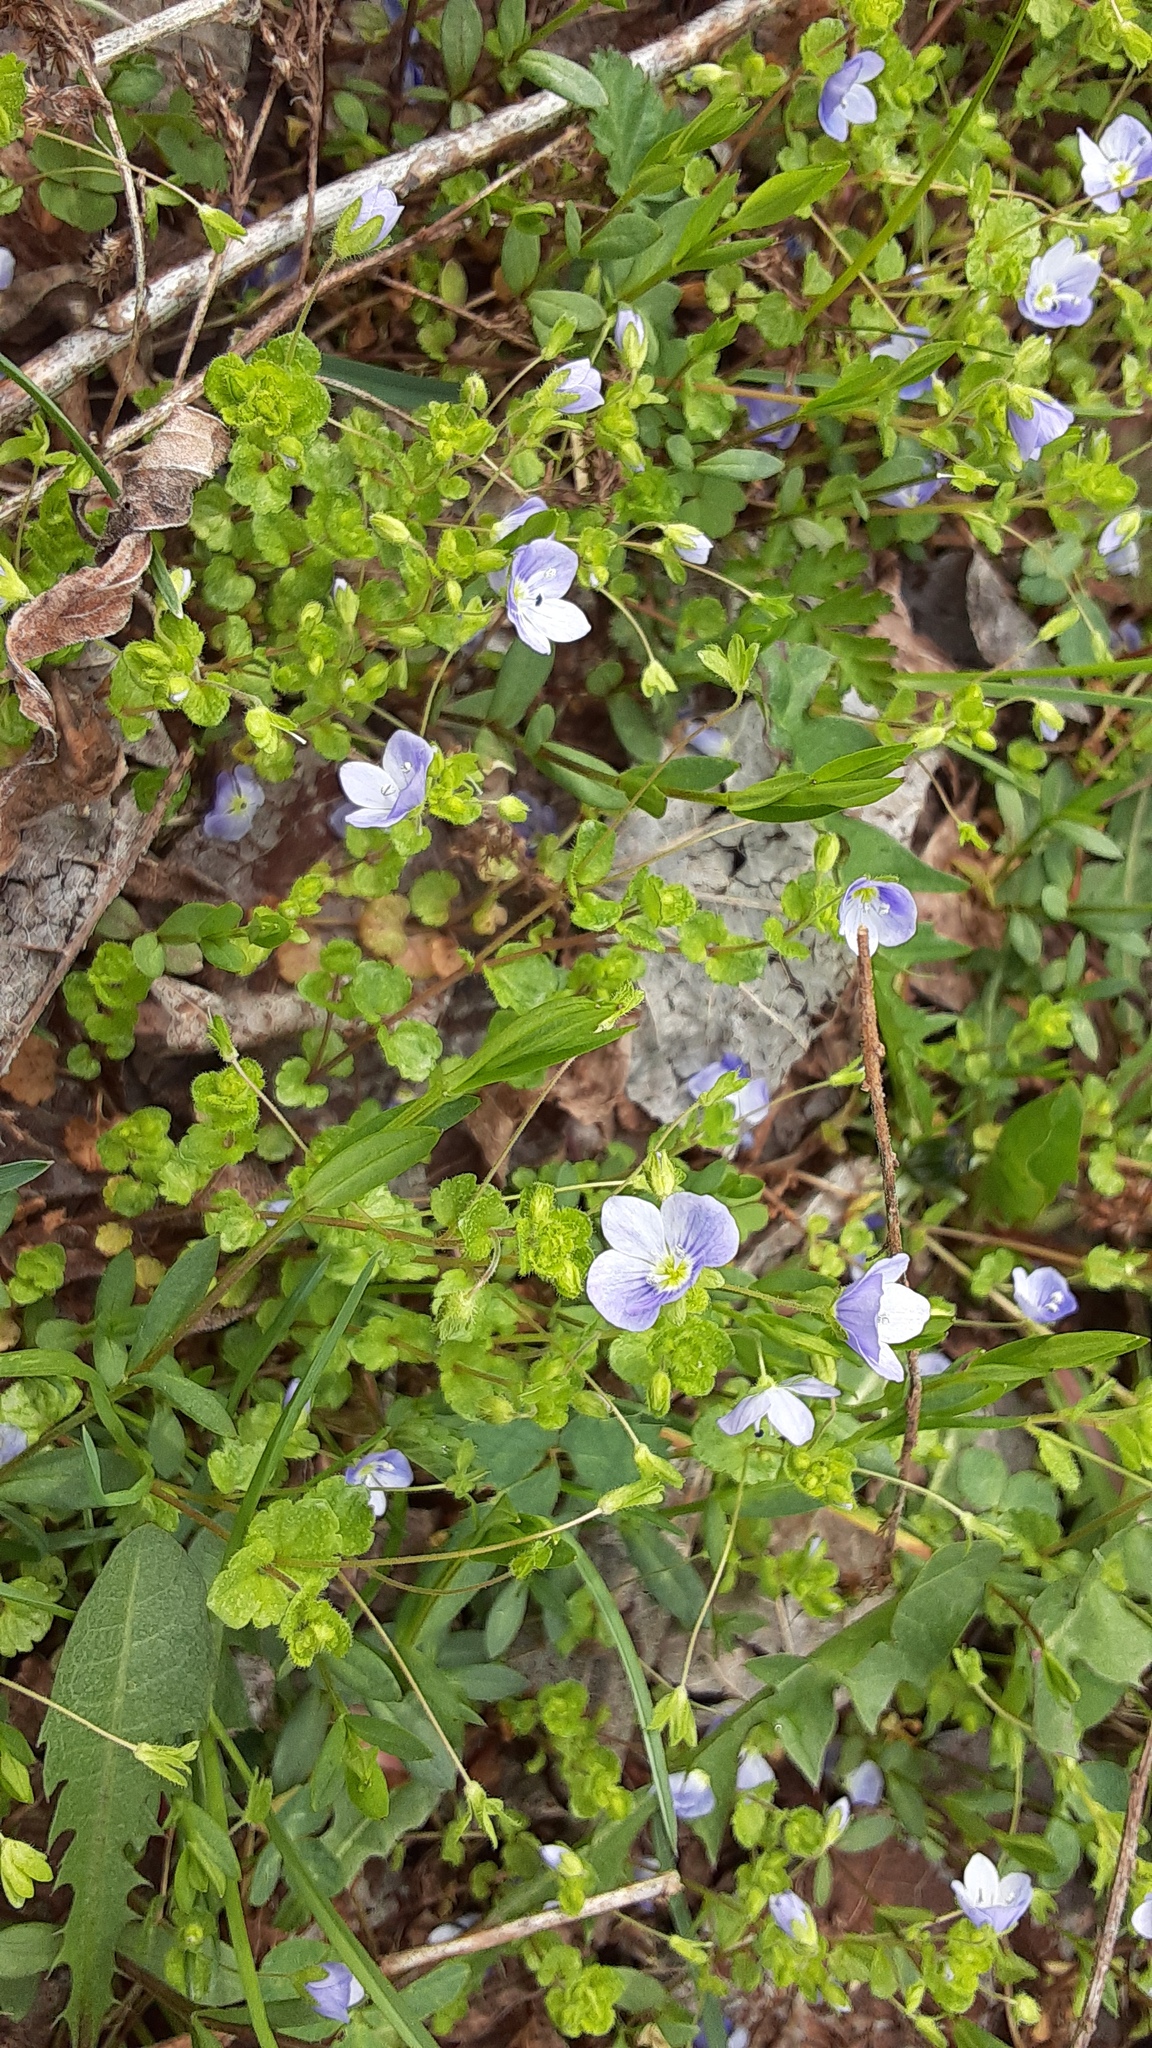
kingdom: Plantae
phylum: Tracheophyta
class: Magnoliopsida
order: Lamiales
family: Plantaginaceae
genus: Veronica
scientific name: Veronica filiformis
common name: Slender speedwell
